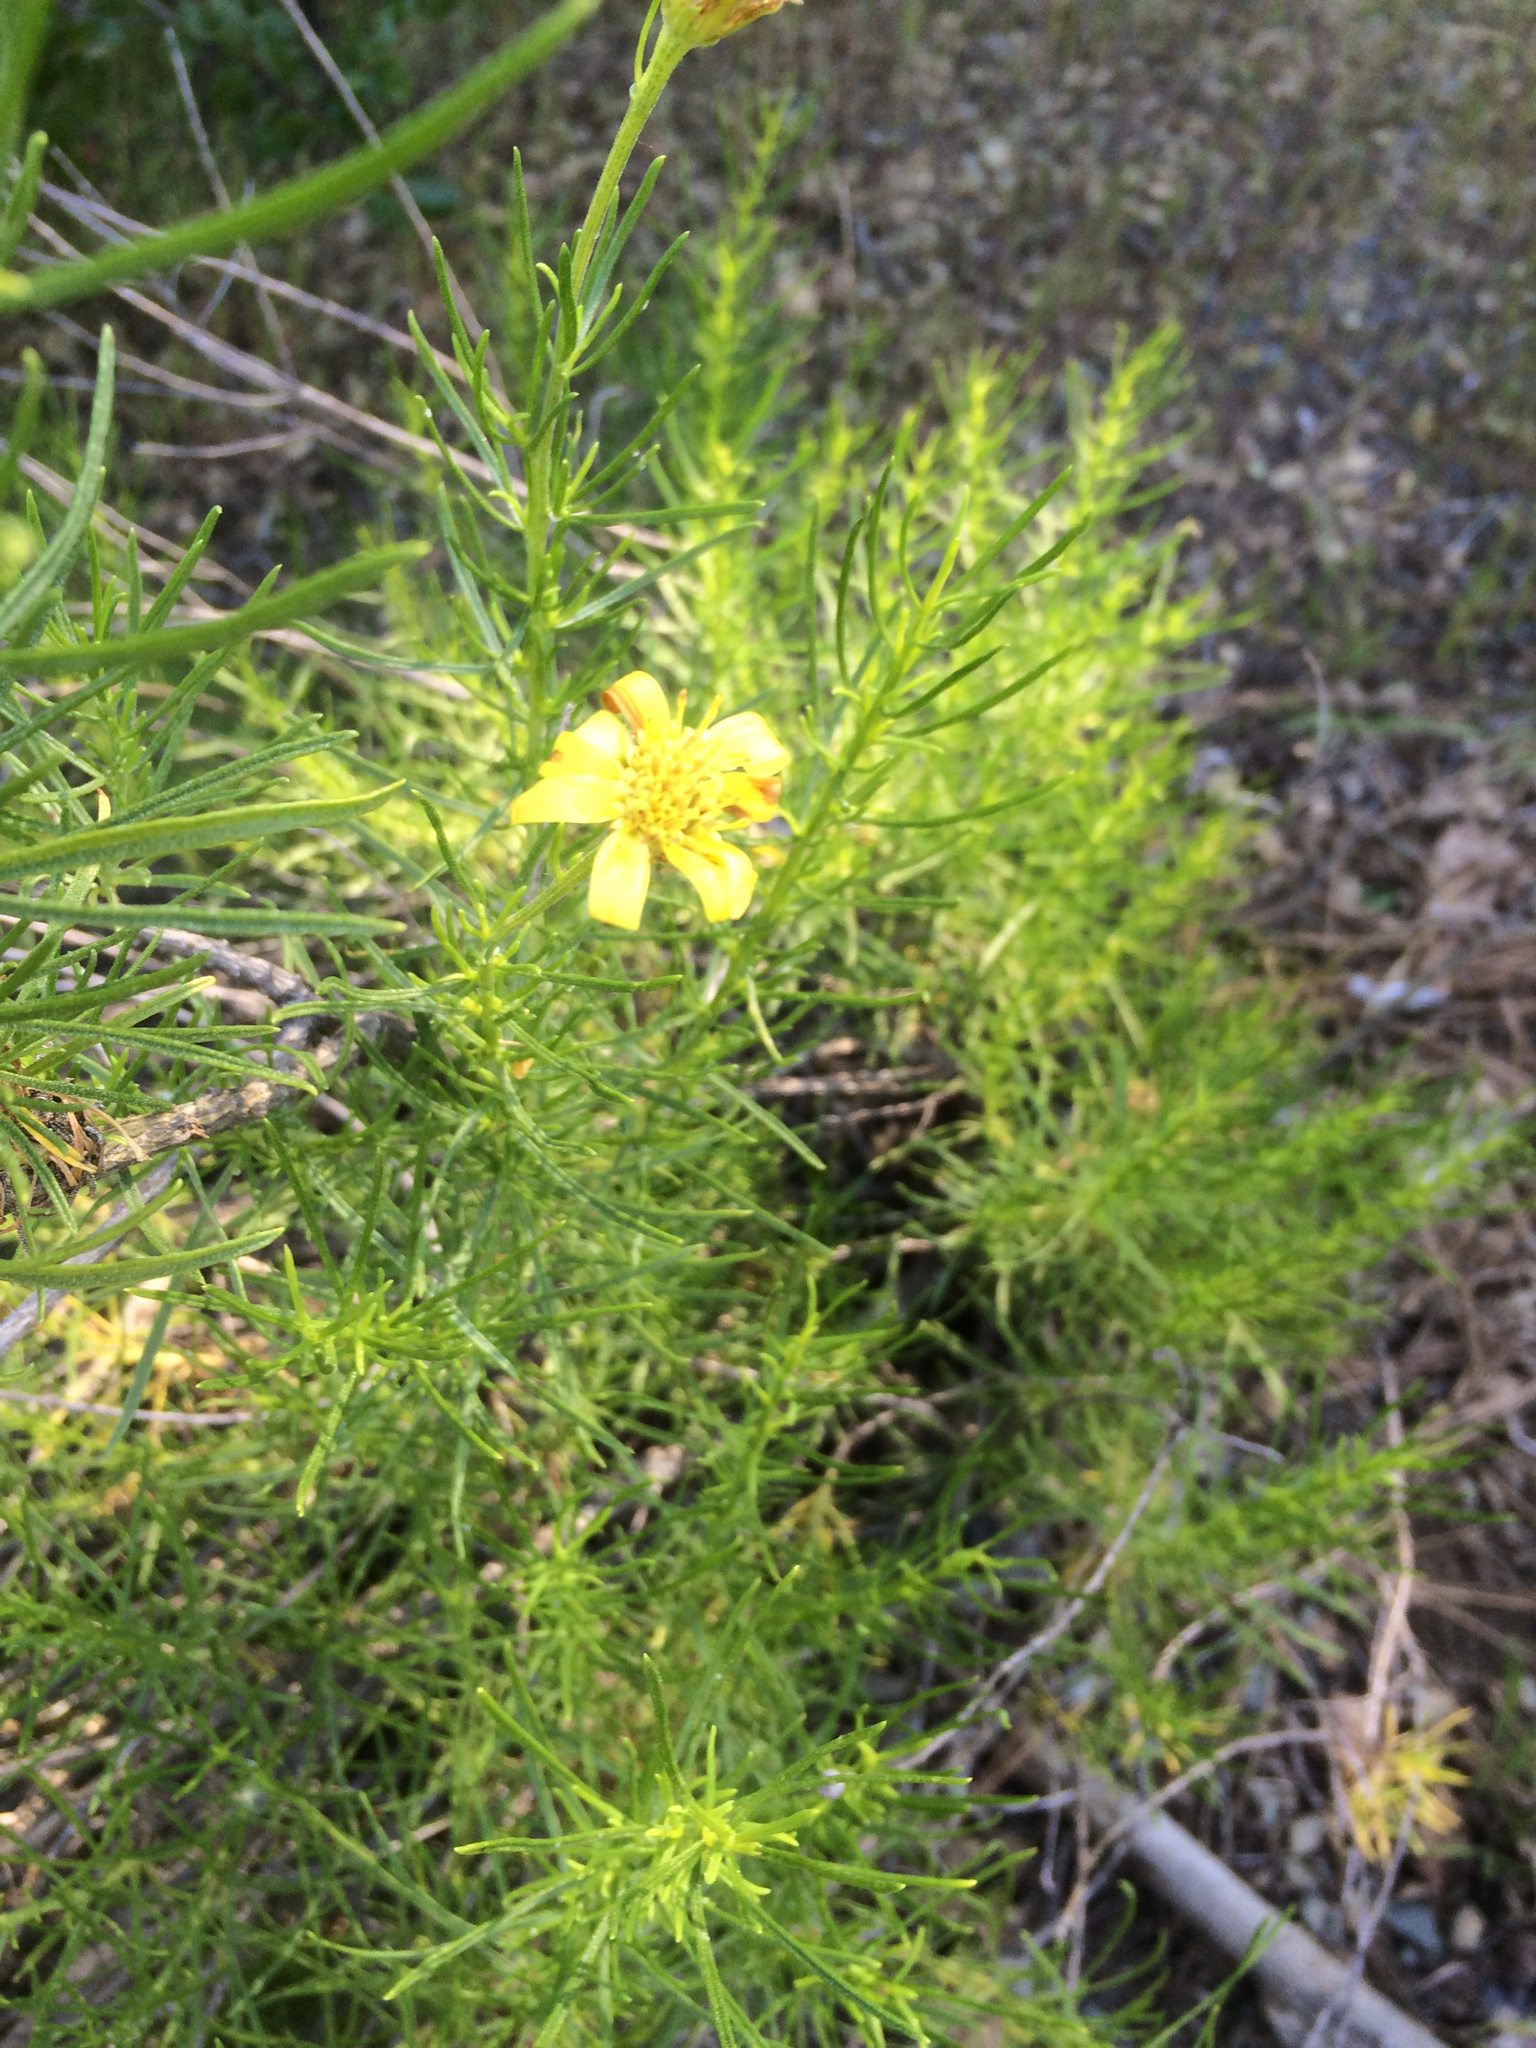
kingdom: Plantae
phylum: Tracheophyta
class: Magnoliopsida
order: Asterales
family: Asteraceae
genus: Ericameria
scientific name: Ericameria linearifolia
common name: Interior goldenbush
